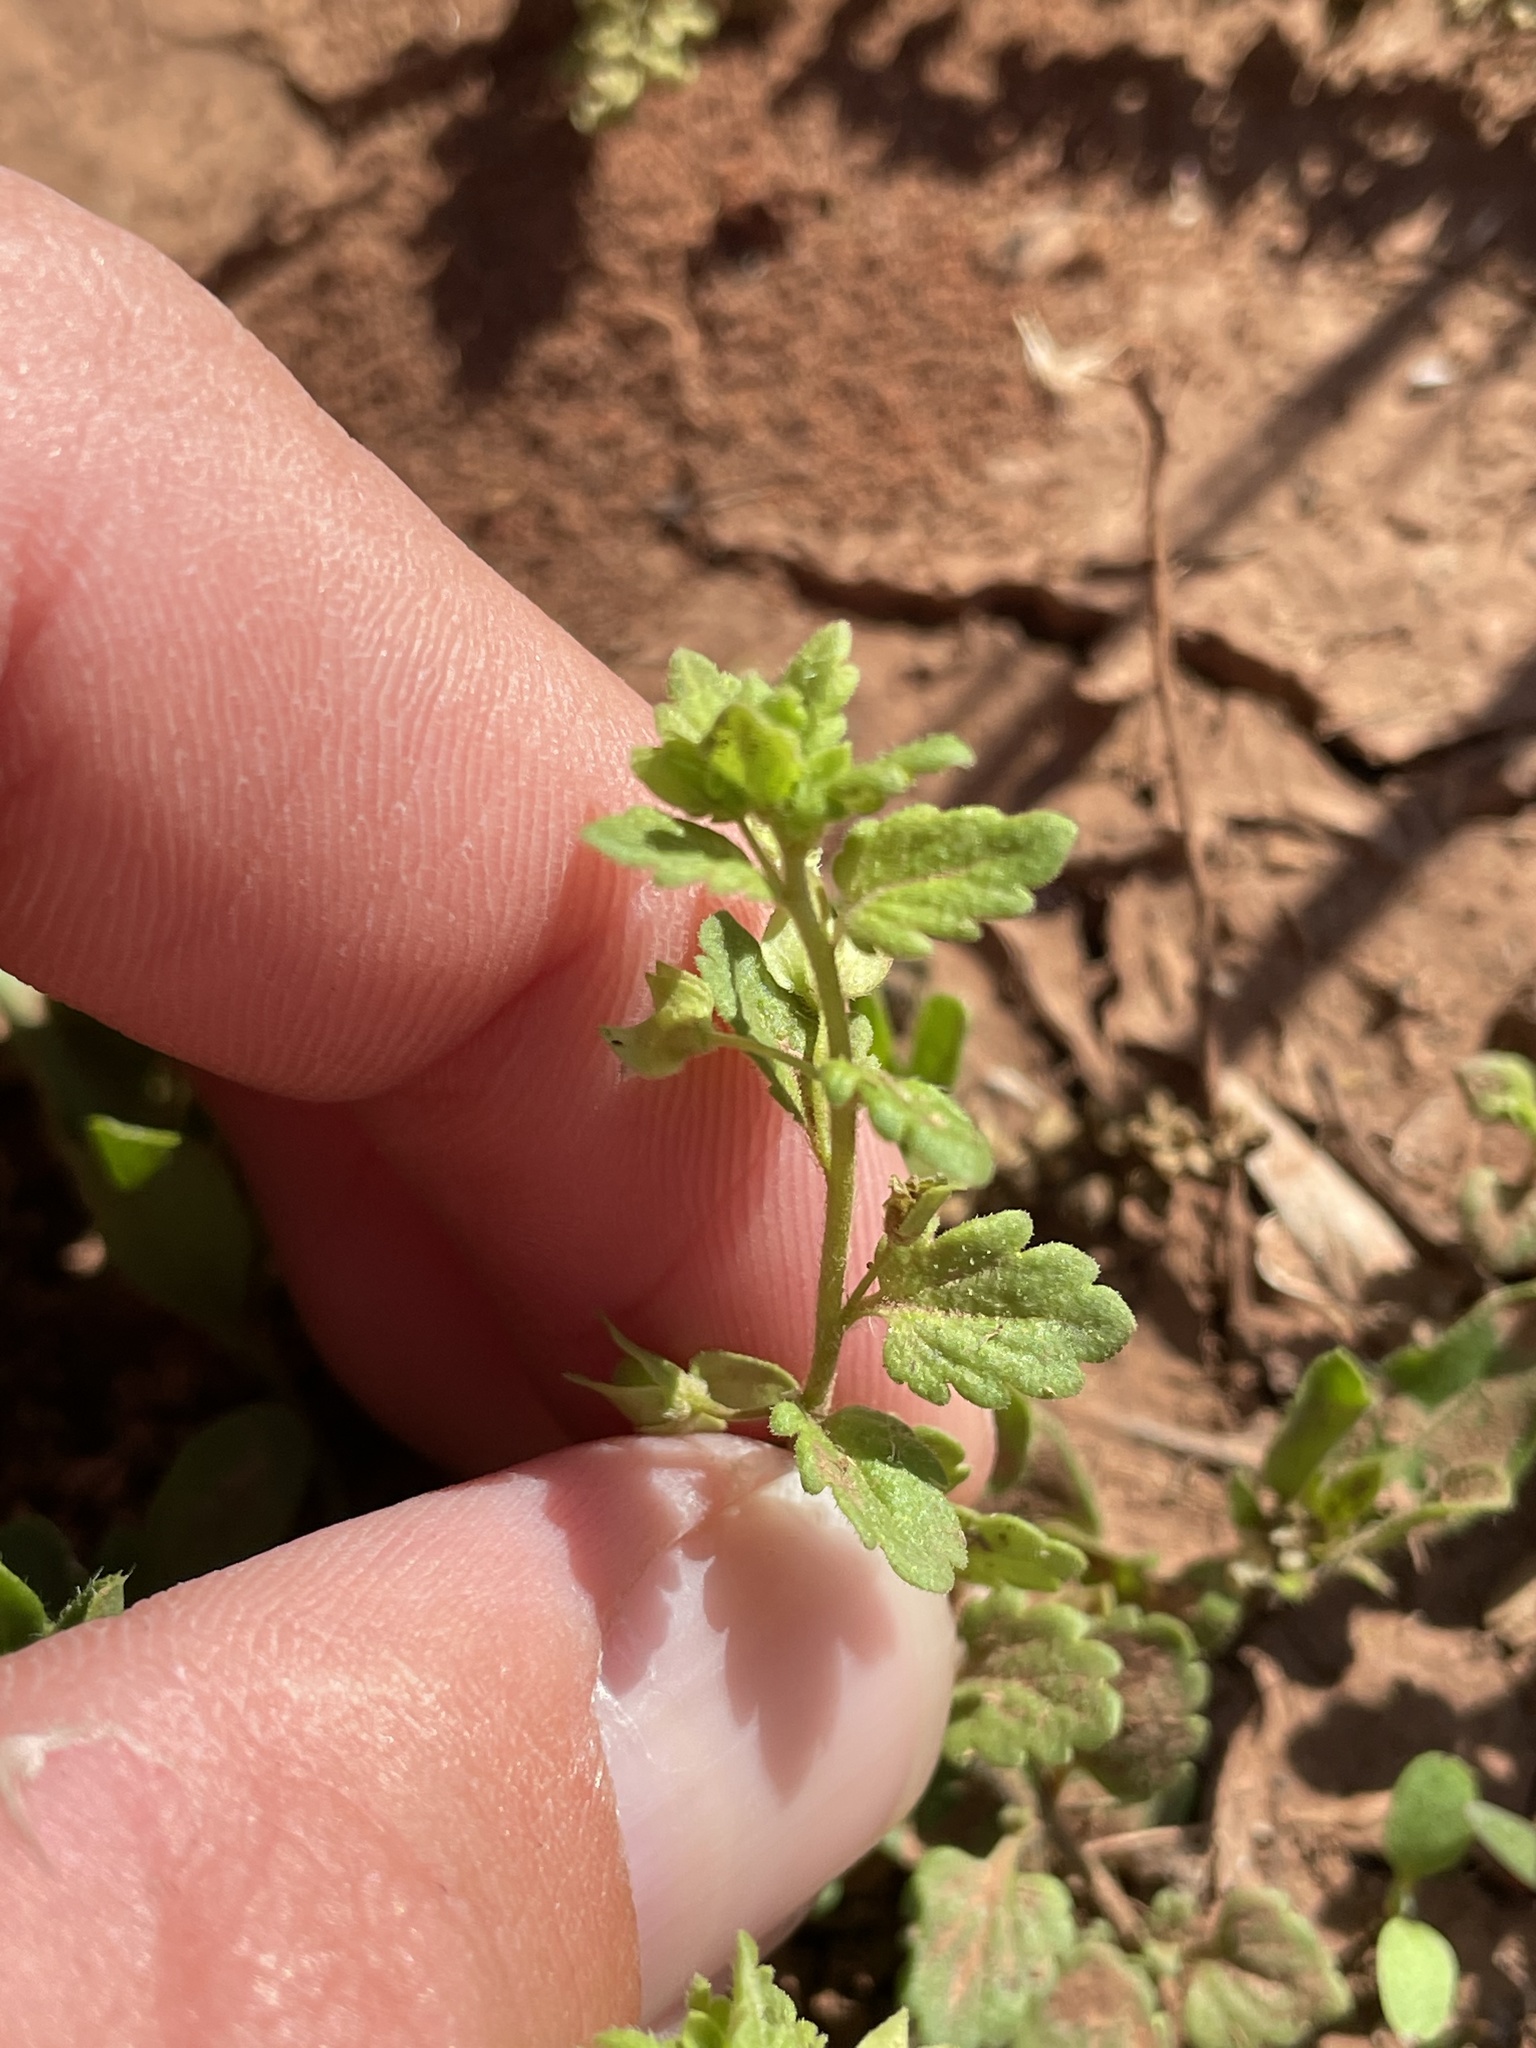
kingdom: Plantae
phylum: Tracheophyta
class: Magnoliopsida
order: Lamiales
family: Plantaginaceae
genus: Veronica
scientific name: Veronica polita
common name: Grey field-speedwell
